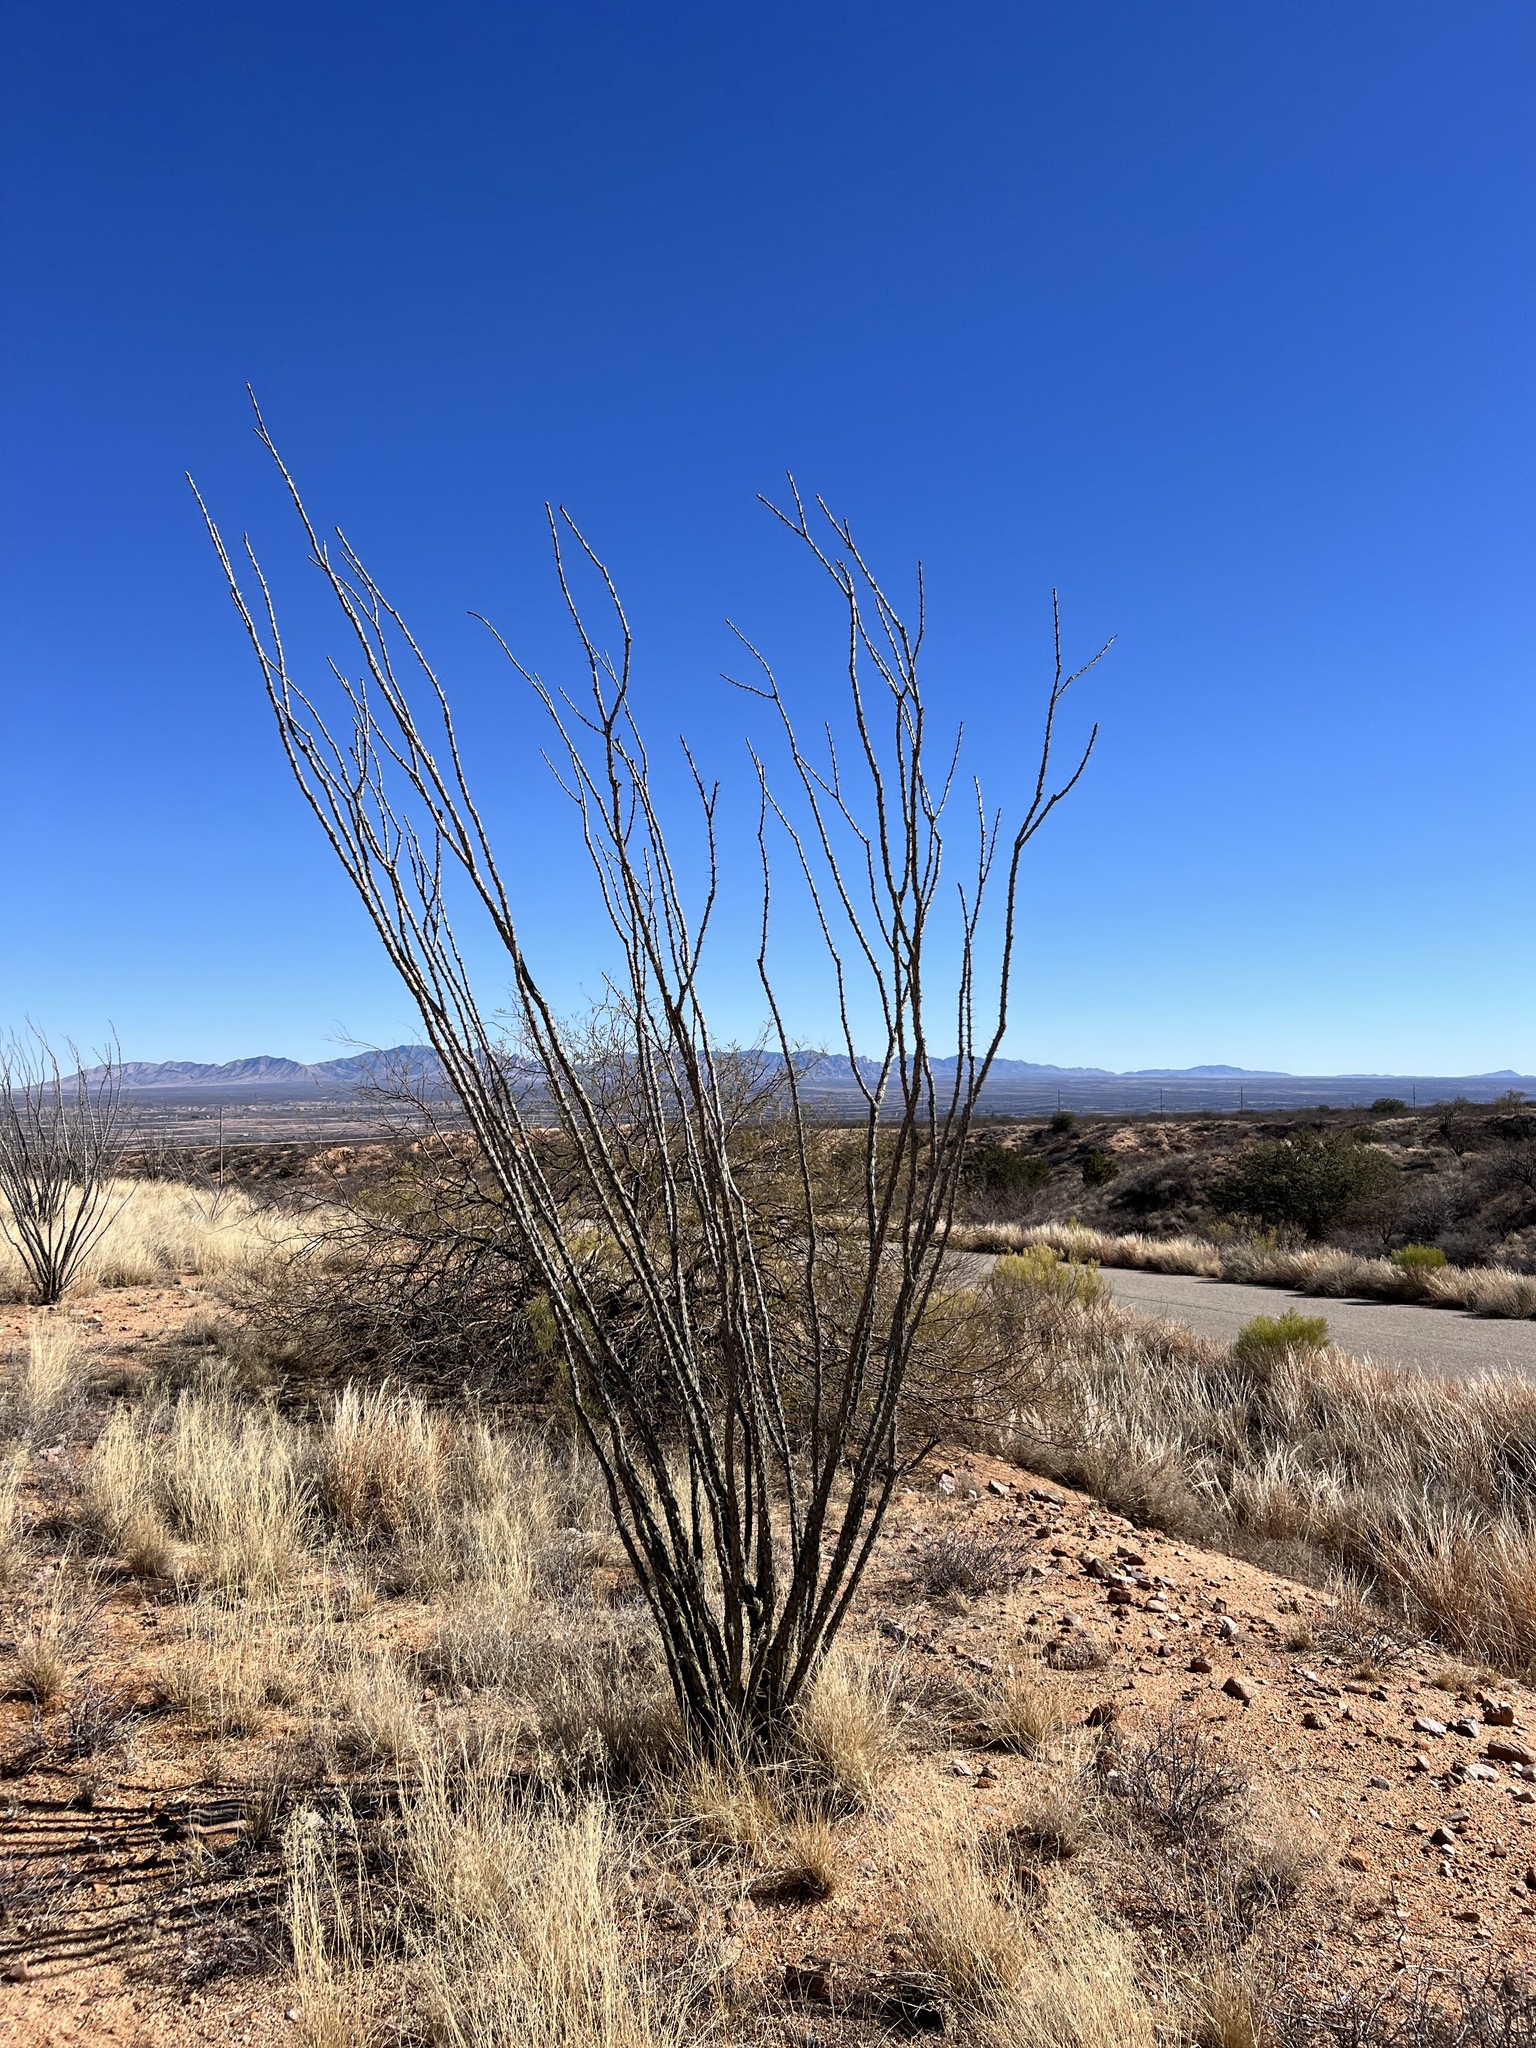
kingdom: Plantae
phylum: Tracheophyta
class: Magnoliopsida
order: Ericales
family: Fouquieriaceae
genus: Fouquieria
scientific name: Fouquieria splendens
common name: Vine-cactus
